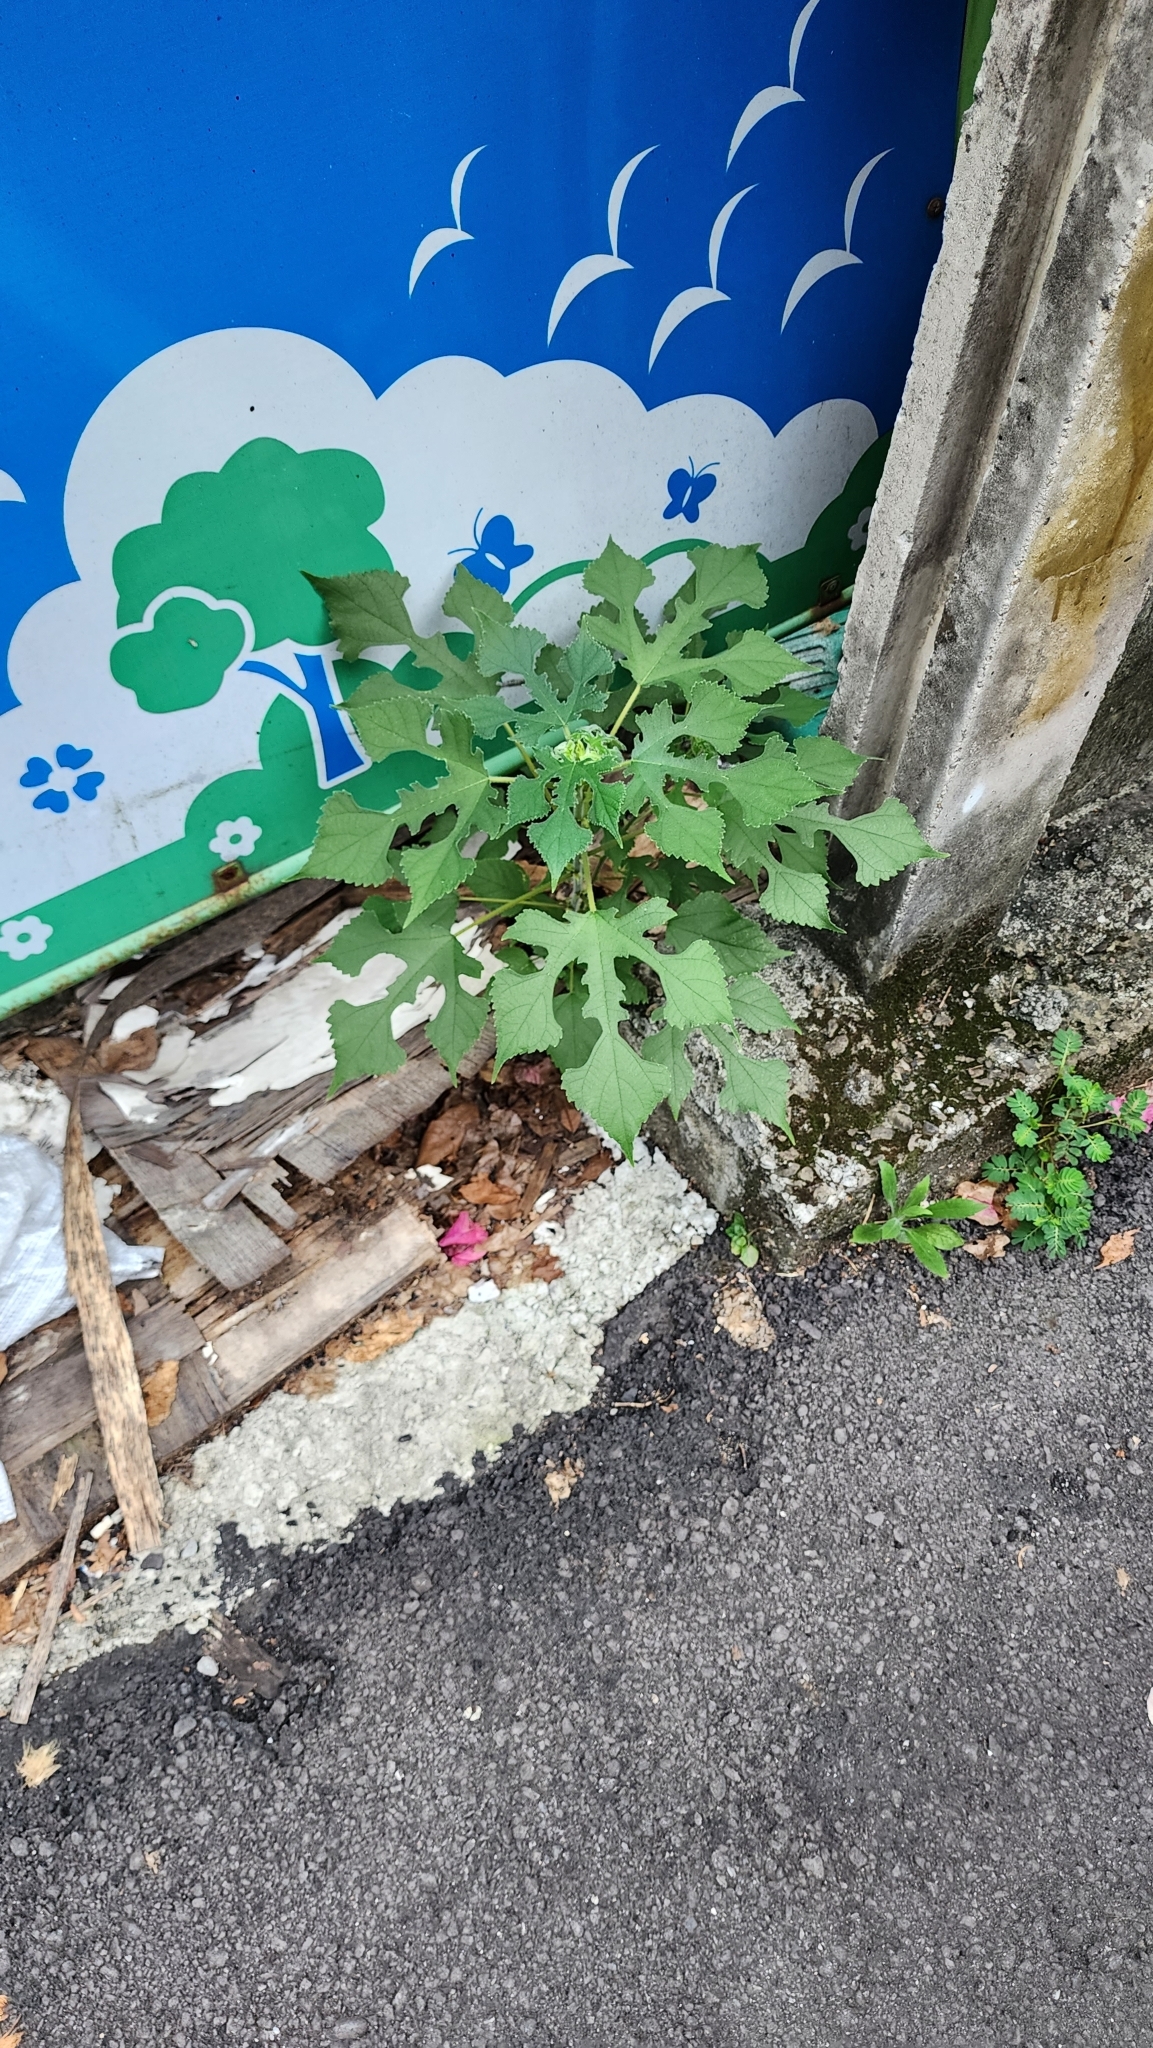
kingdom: Plantae
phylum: Tracheophyta
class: Magnoliopsida
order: Rosales
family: Moraceae
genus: Broussonetia
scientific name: Broussonetia papyrifera
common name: Paper mulberry
